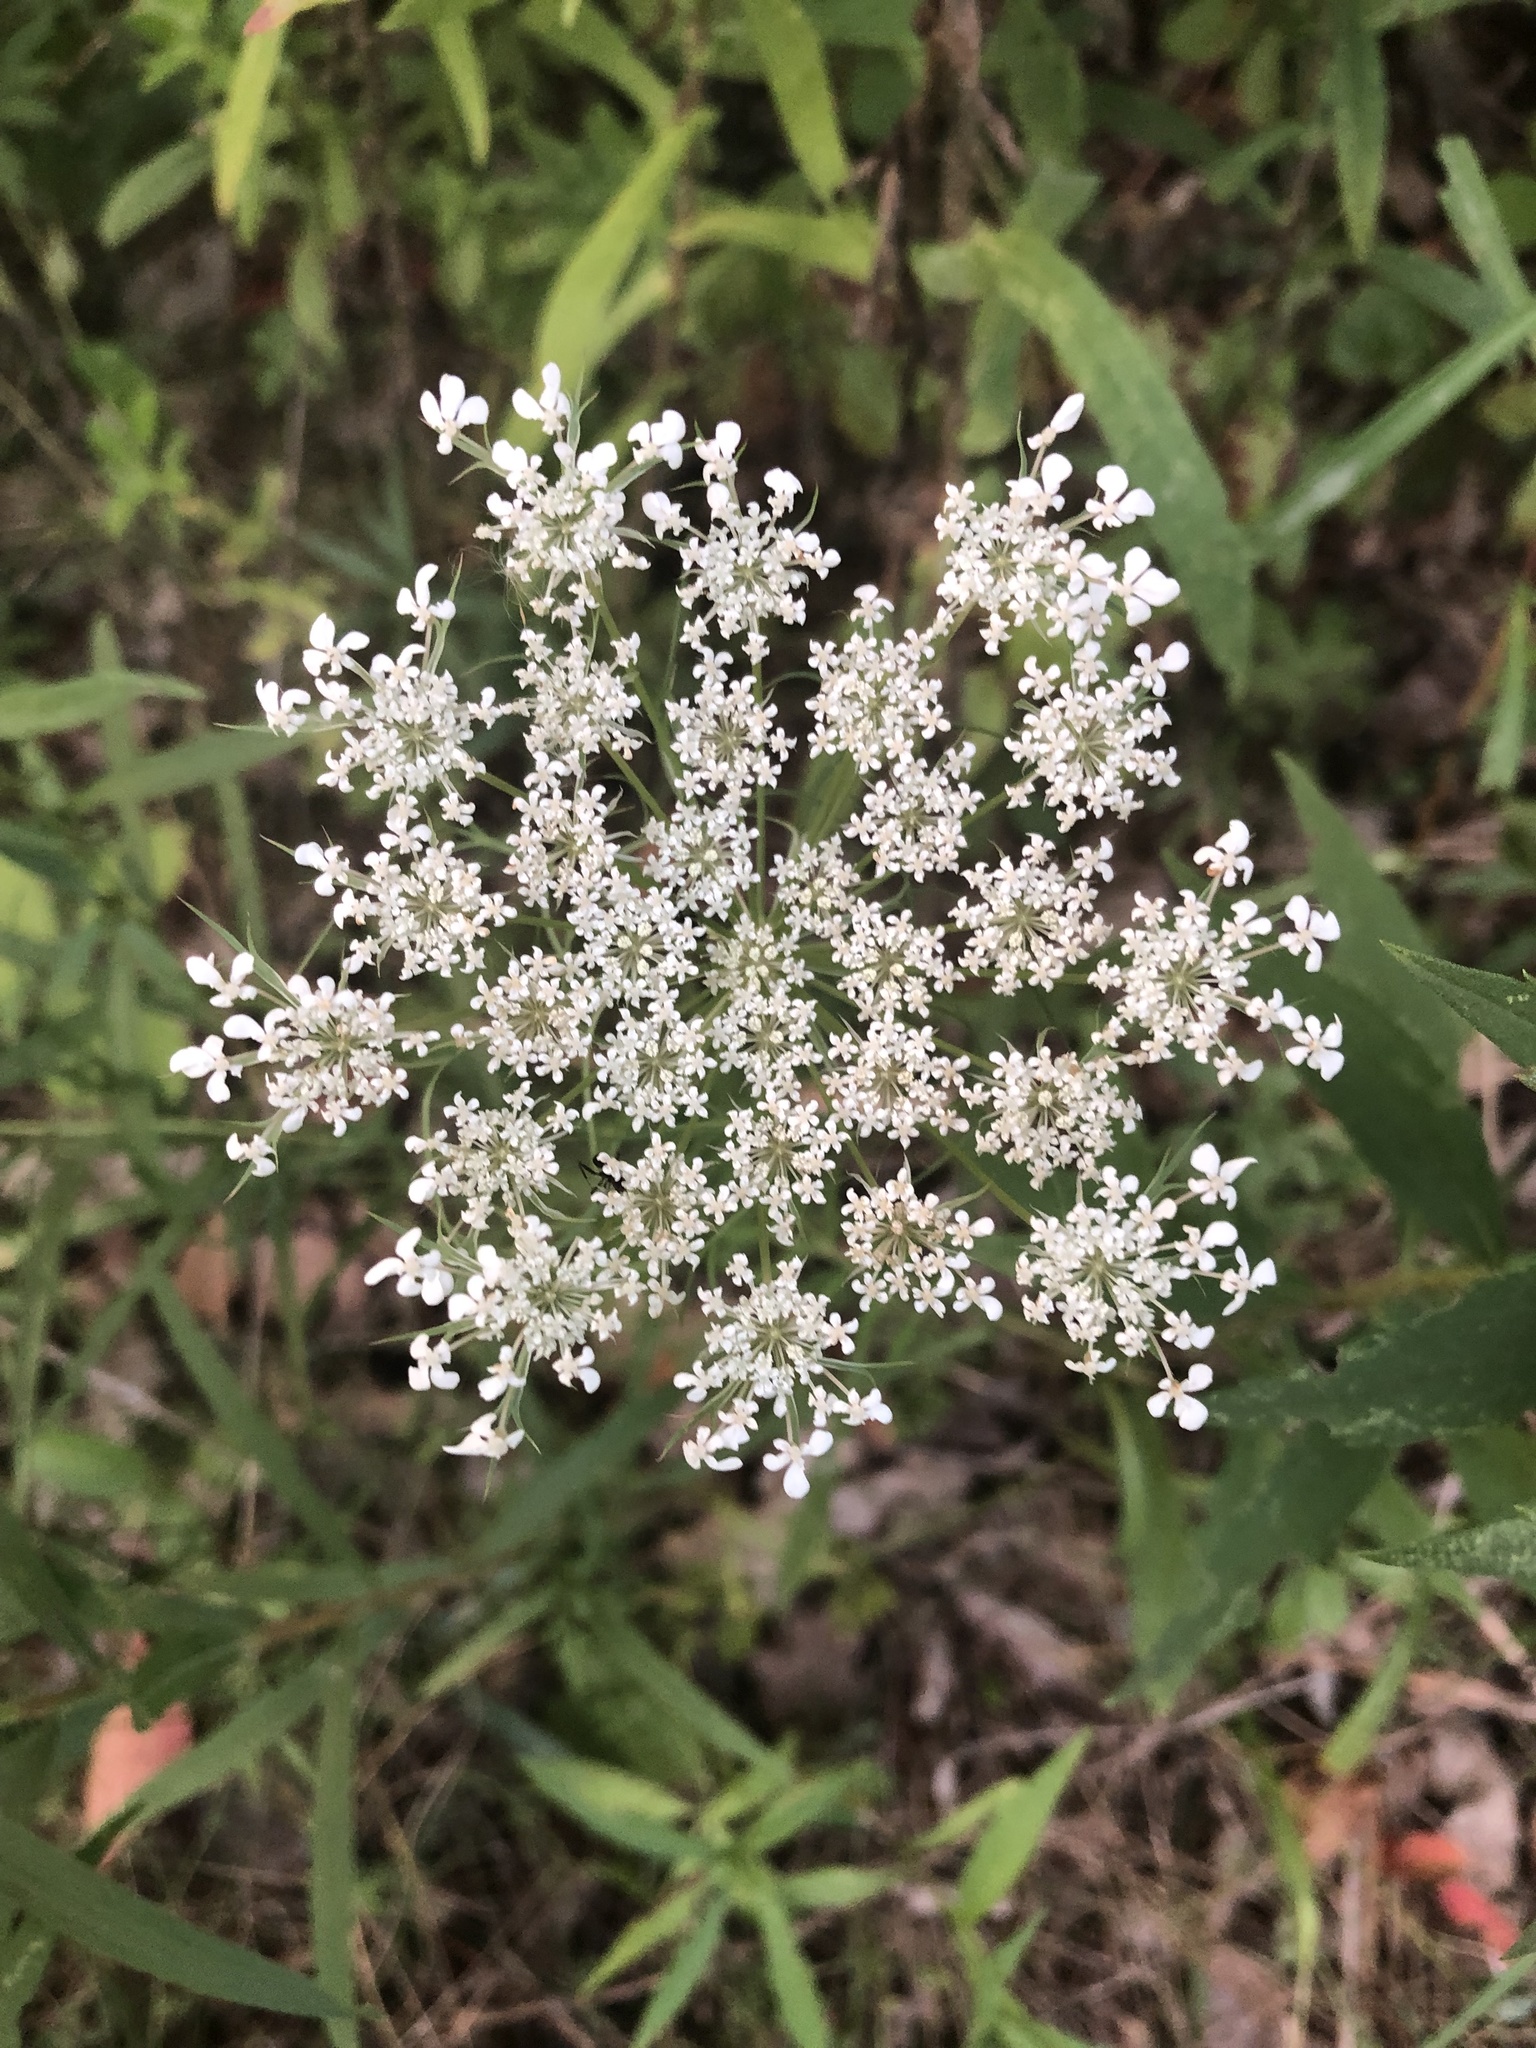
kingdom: Plantae
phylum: Tracheophyta
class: Magnoliopsida
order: Apiales
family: Apiaceae
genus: Daucus
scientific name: Daucus carota
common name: Wild carrot
